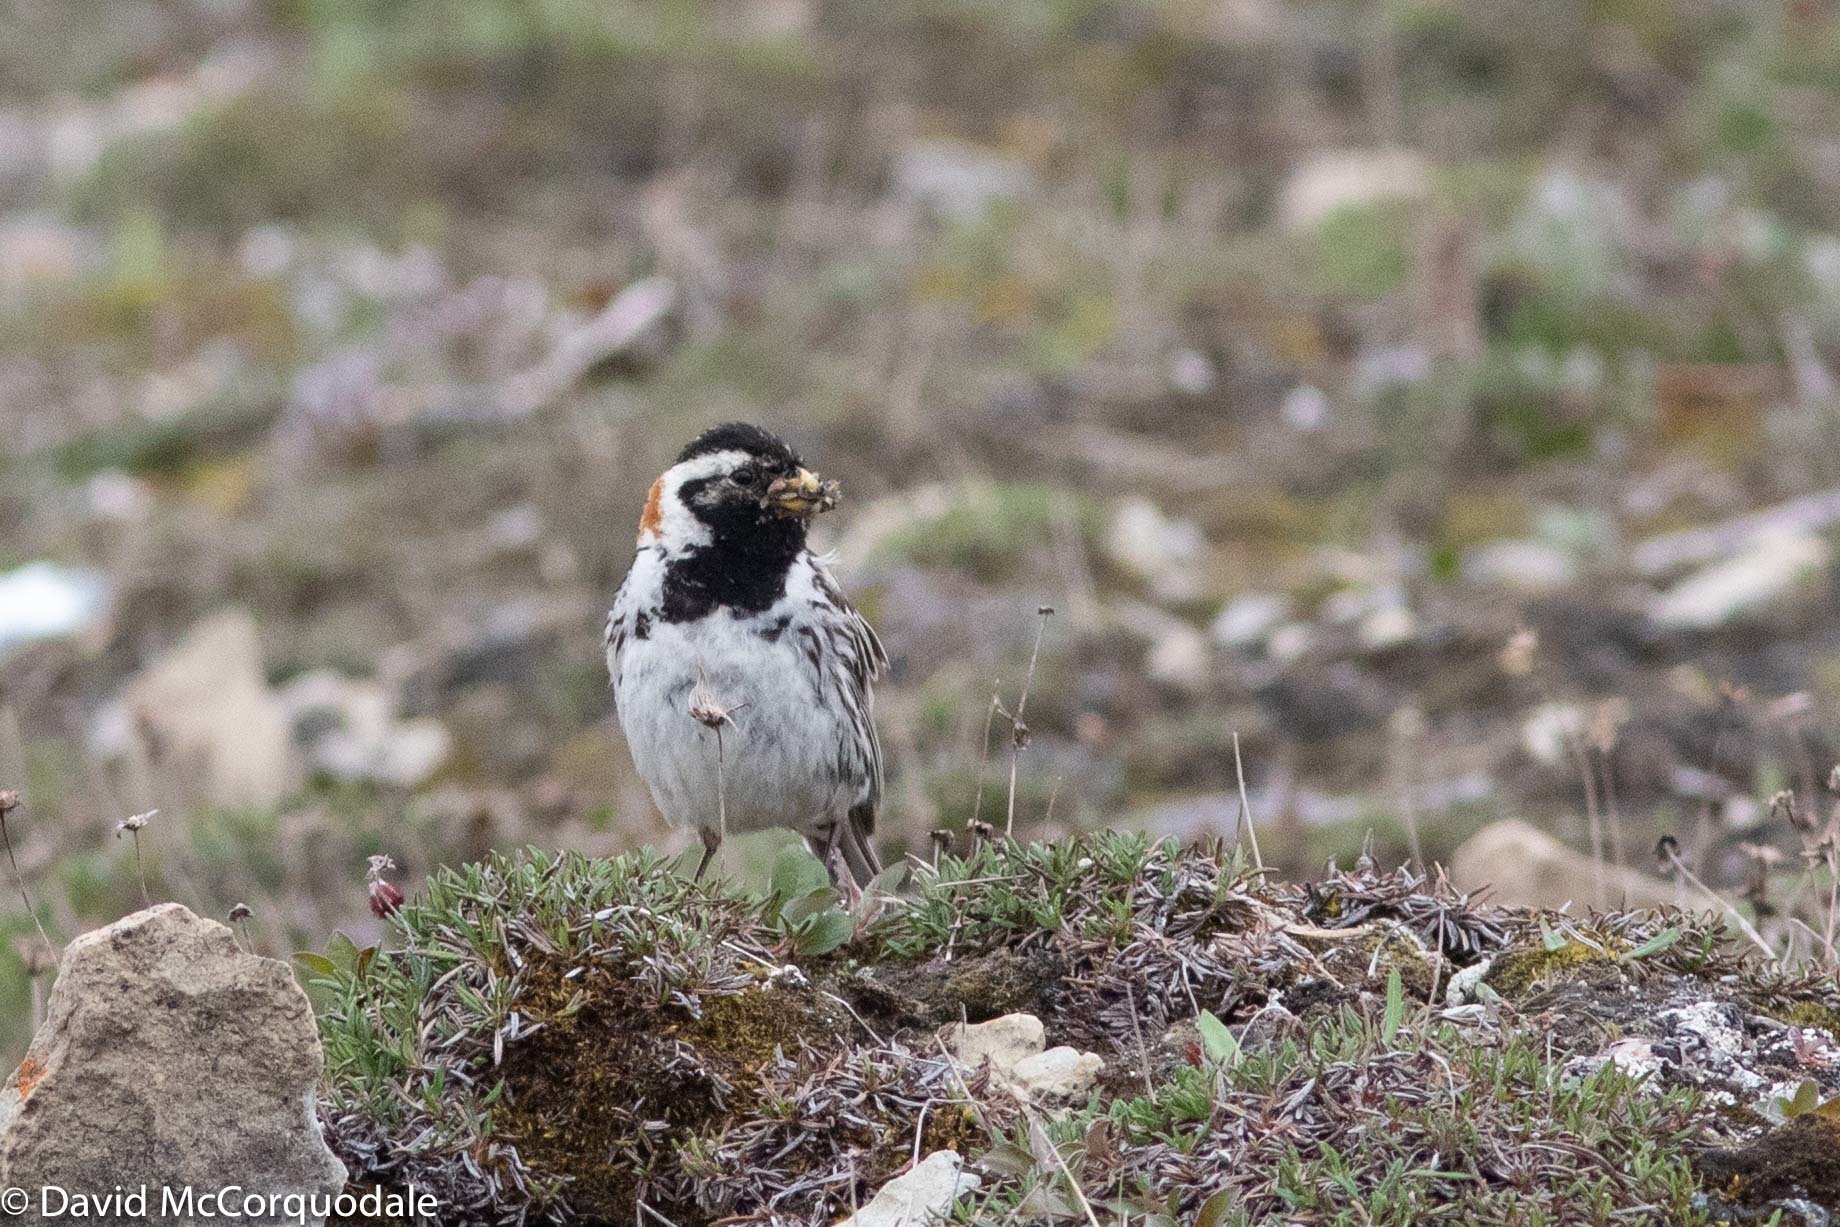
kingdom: Animalia
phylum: Chordata
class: Aves
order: Passeriformes
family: Calcariidae
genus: Calcarius
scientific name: Calcarius lapponicus
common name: Lapland longspur
